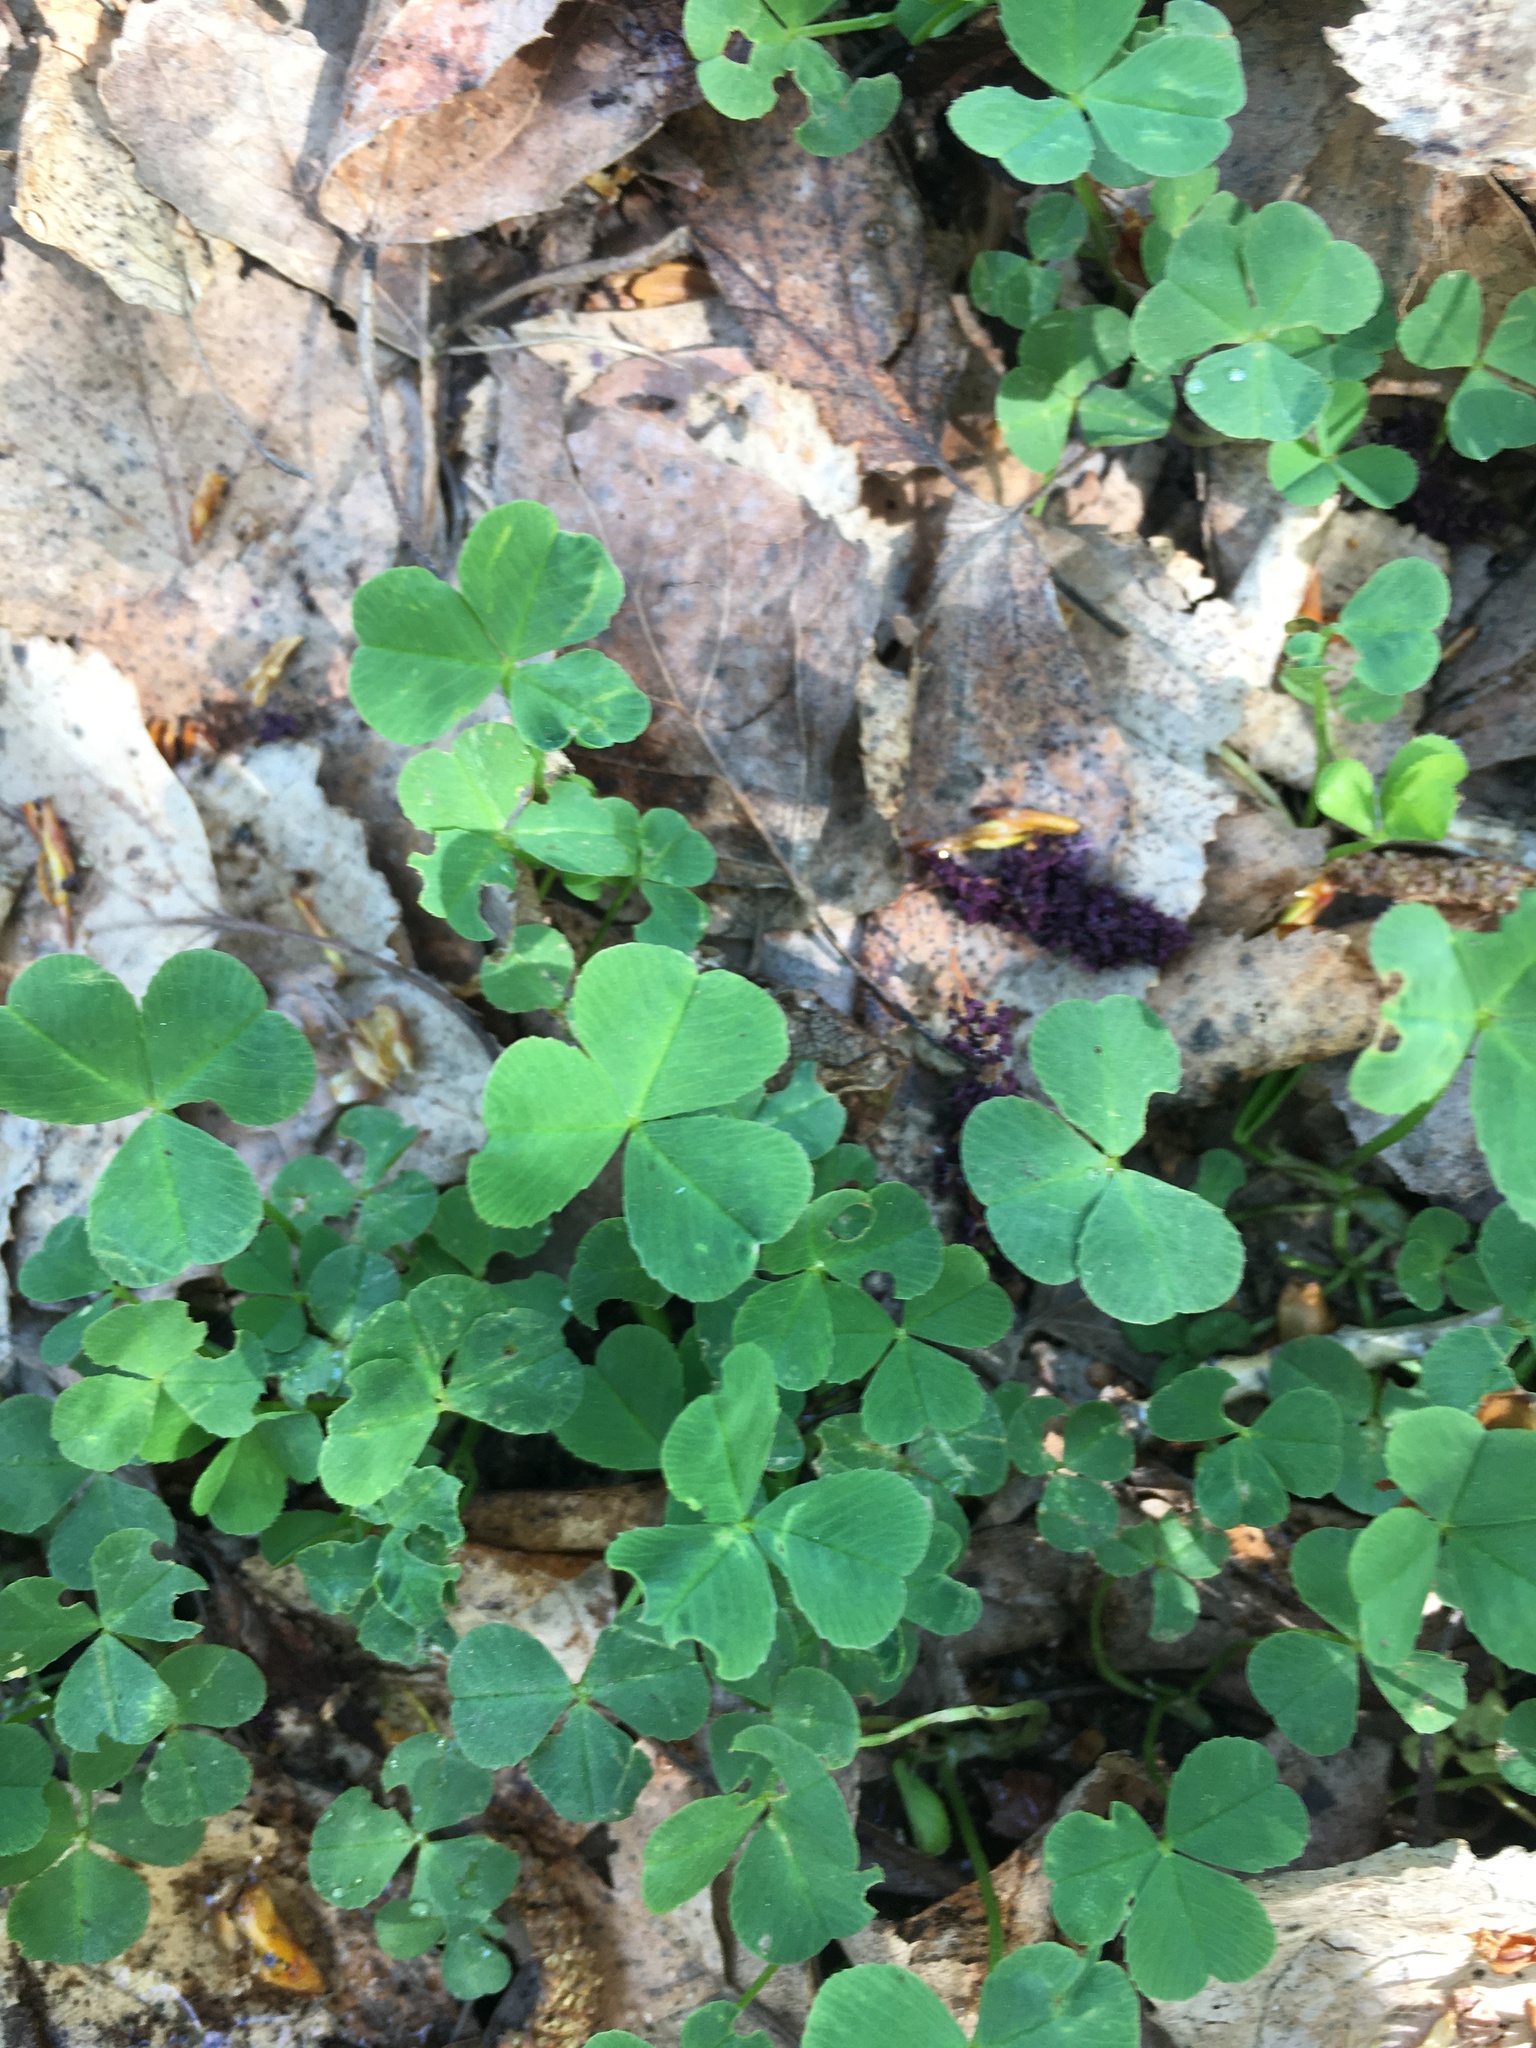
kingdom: Plantae
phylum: Tracheophyta
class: Magnoliopsida
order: Fabales
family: Fabaceae
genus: Trifolium
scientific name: Trifolium repens
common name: White clover
